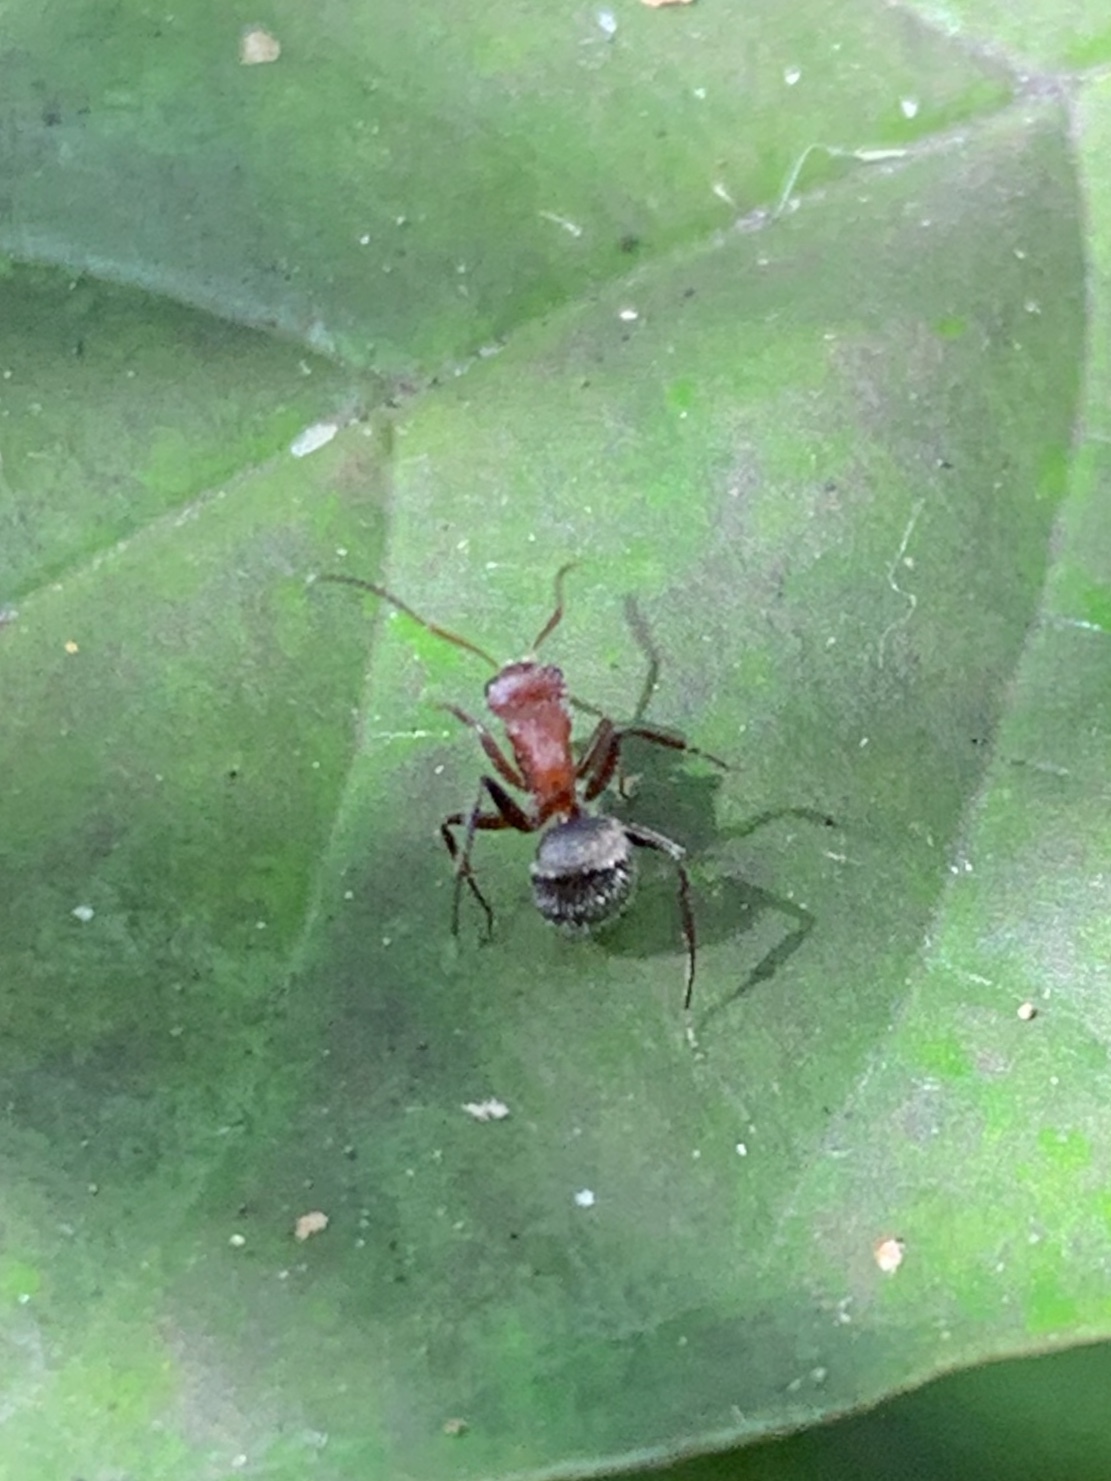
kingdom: Animalia
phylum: Arthropoda
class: Insecta
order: Hymenoptera
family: Formicidae
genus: Camponotus
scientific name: Camponotus planatus
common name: Compact carpenter ant
